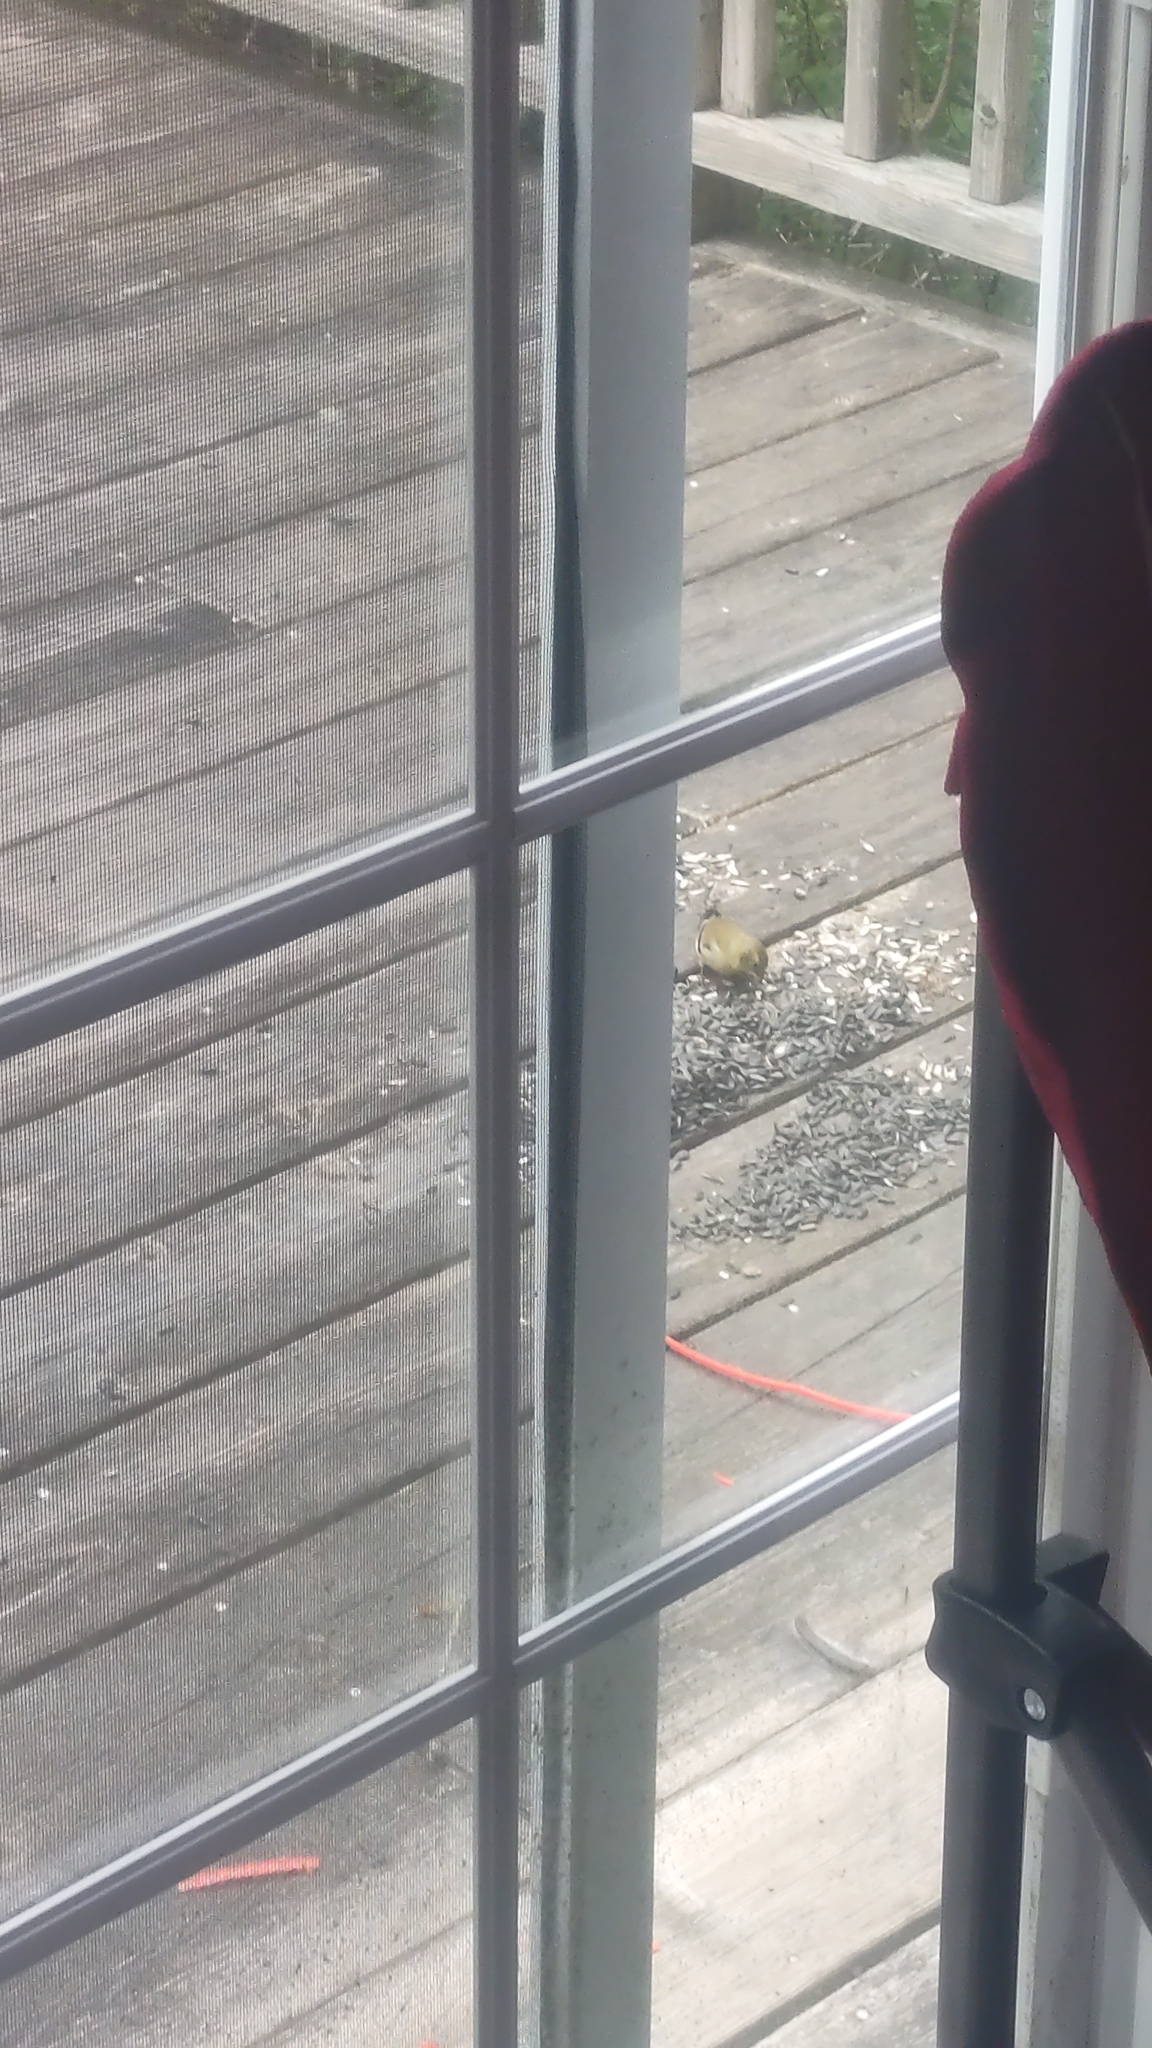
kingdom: Animalia
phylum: Chordata
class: Aves
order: Passeriformes
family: Fringillidae
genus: Spinus
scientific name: Spinus tristis
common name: American goldfinch
